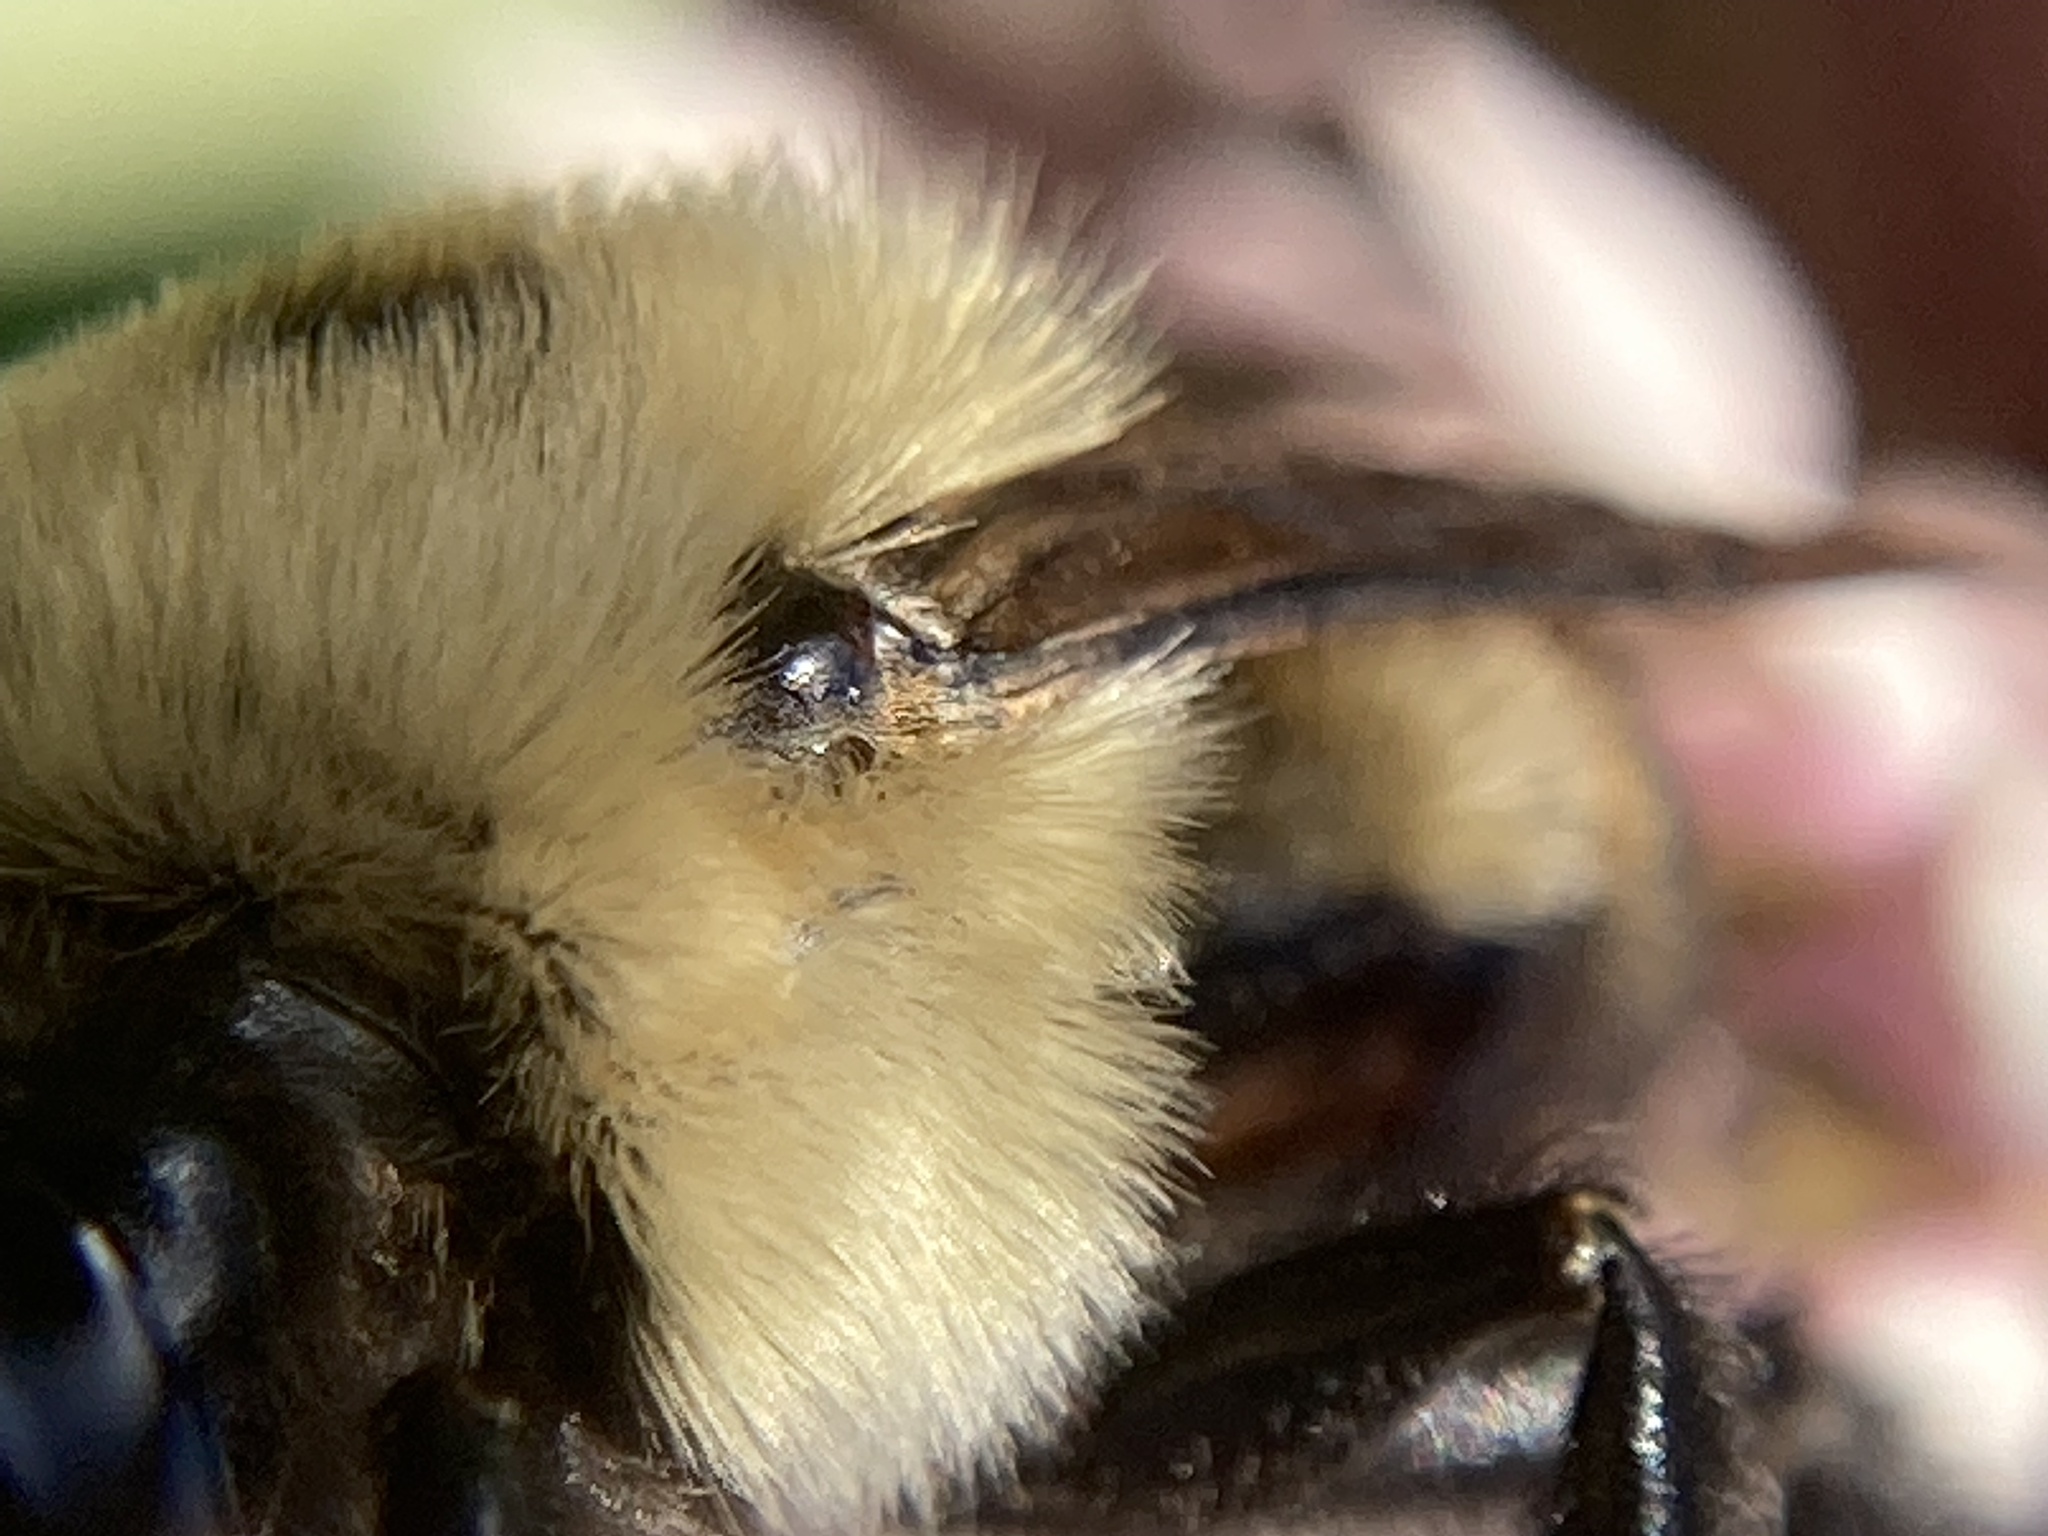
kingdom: Animalia
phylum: Arthropoda
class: Insecta
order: Hymenoptera
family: Apidae
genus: Bombus
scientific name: Bombus griseocollis
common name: Brown-belted bumble bee
